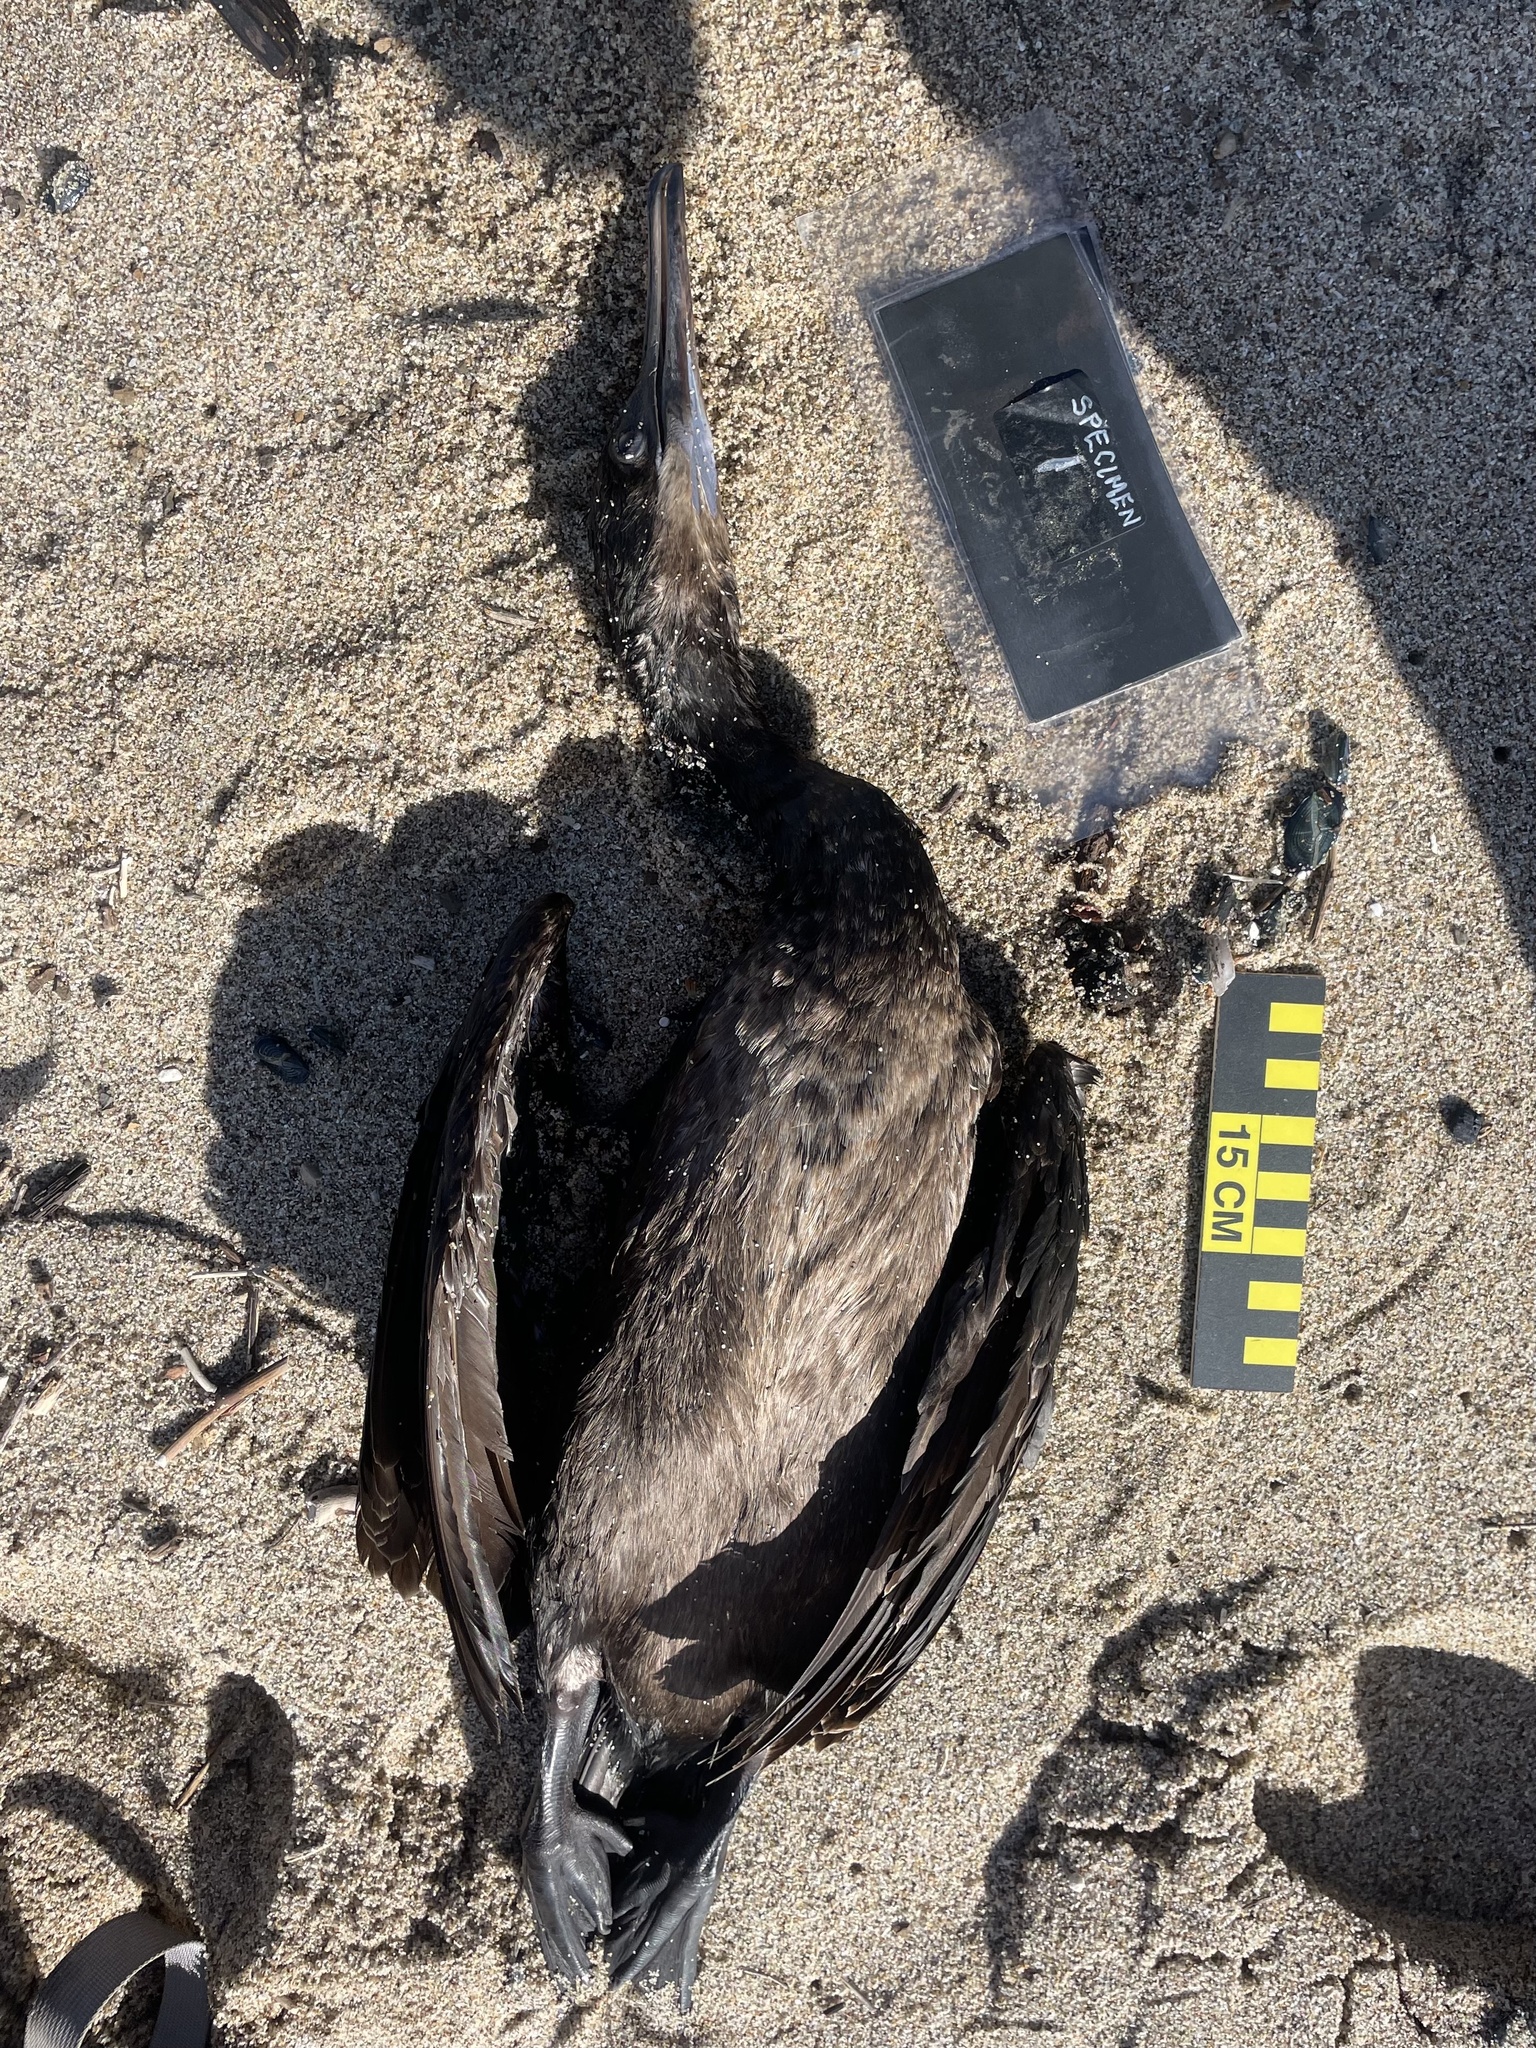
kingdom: Animalia
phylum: Chordata
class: Aves
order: Suliformes
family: Phalacrocoracidae
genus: Urile
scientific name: Urile penicillatus
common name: Brandt's cormorant
